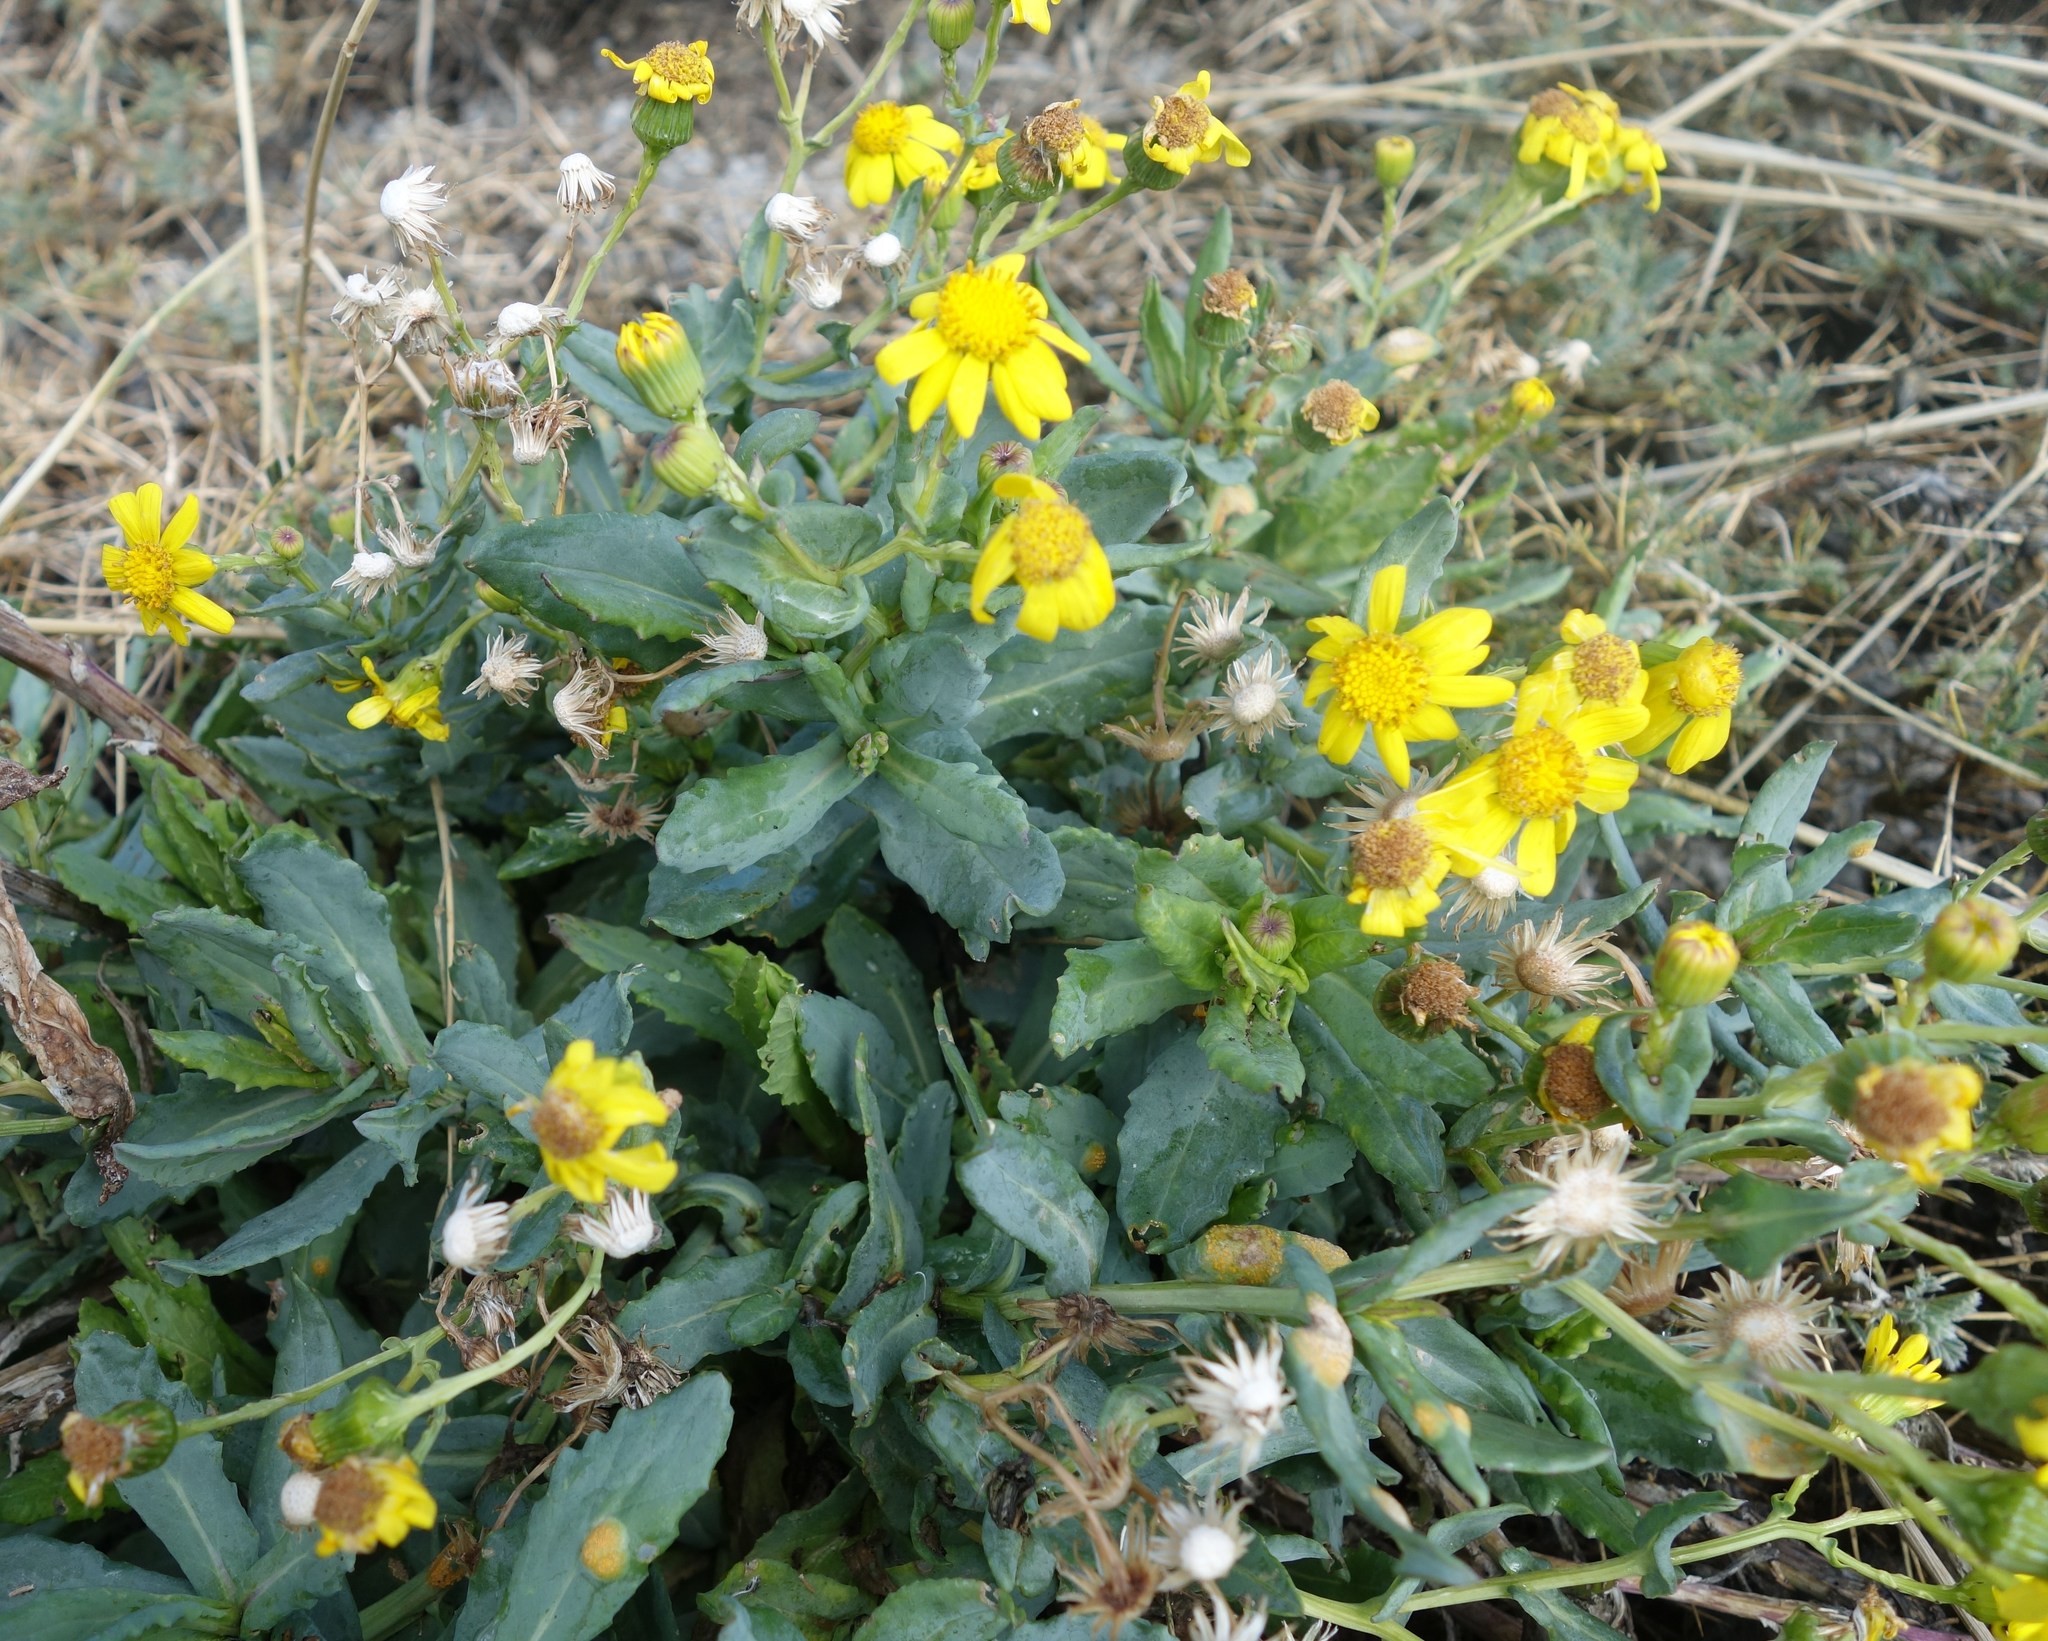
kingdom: Plantae
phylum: Tracheophyta
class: Magnoliopsida
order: Asterales
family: Asteraceae
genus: Senecio
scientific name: Senecio squalidus
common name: Oxford ragwort
